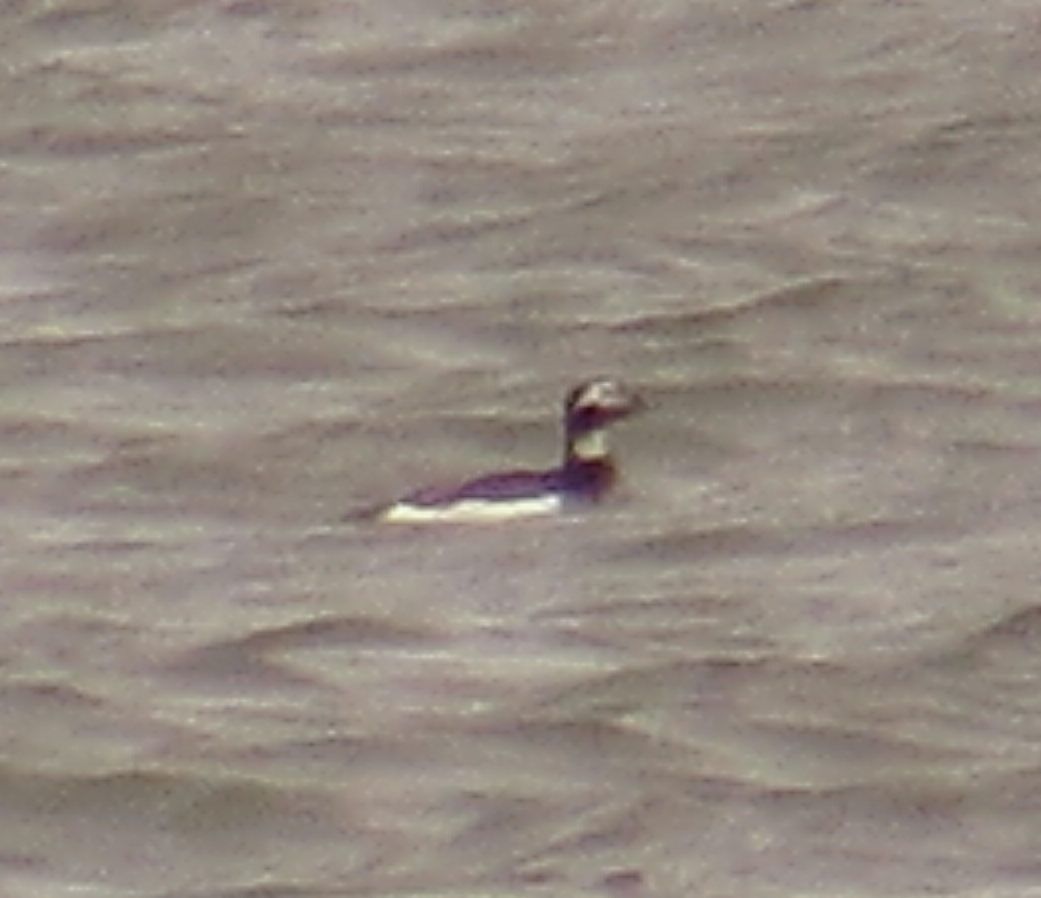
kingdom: Animalia
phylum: Chordata
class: Aves
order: Anseriformes
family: Anatidae
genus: Clangula
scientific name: Clangula hyemalis
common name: Long-tailed duck
